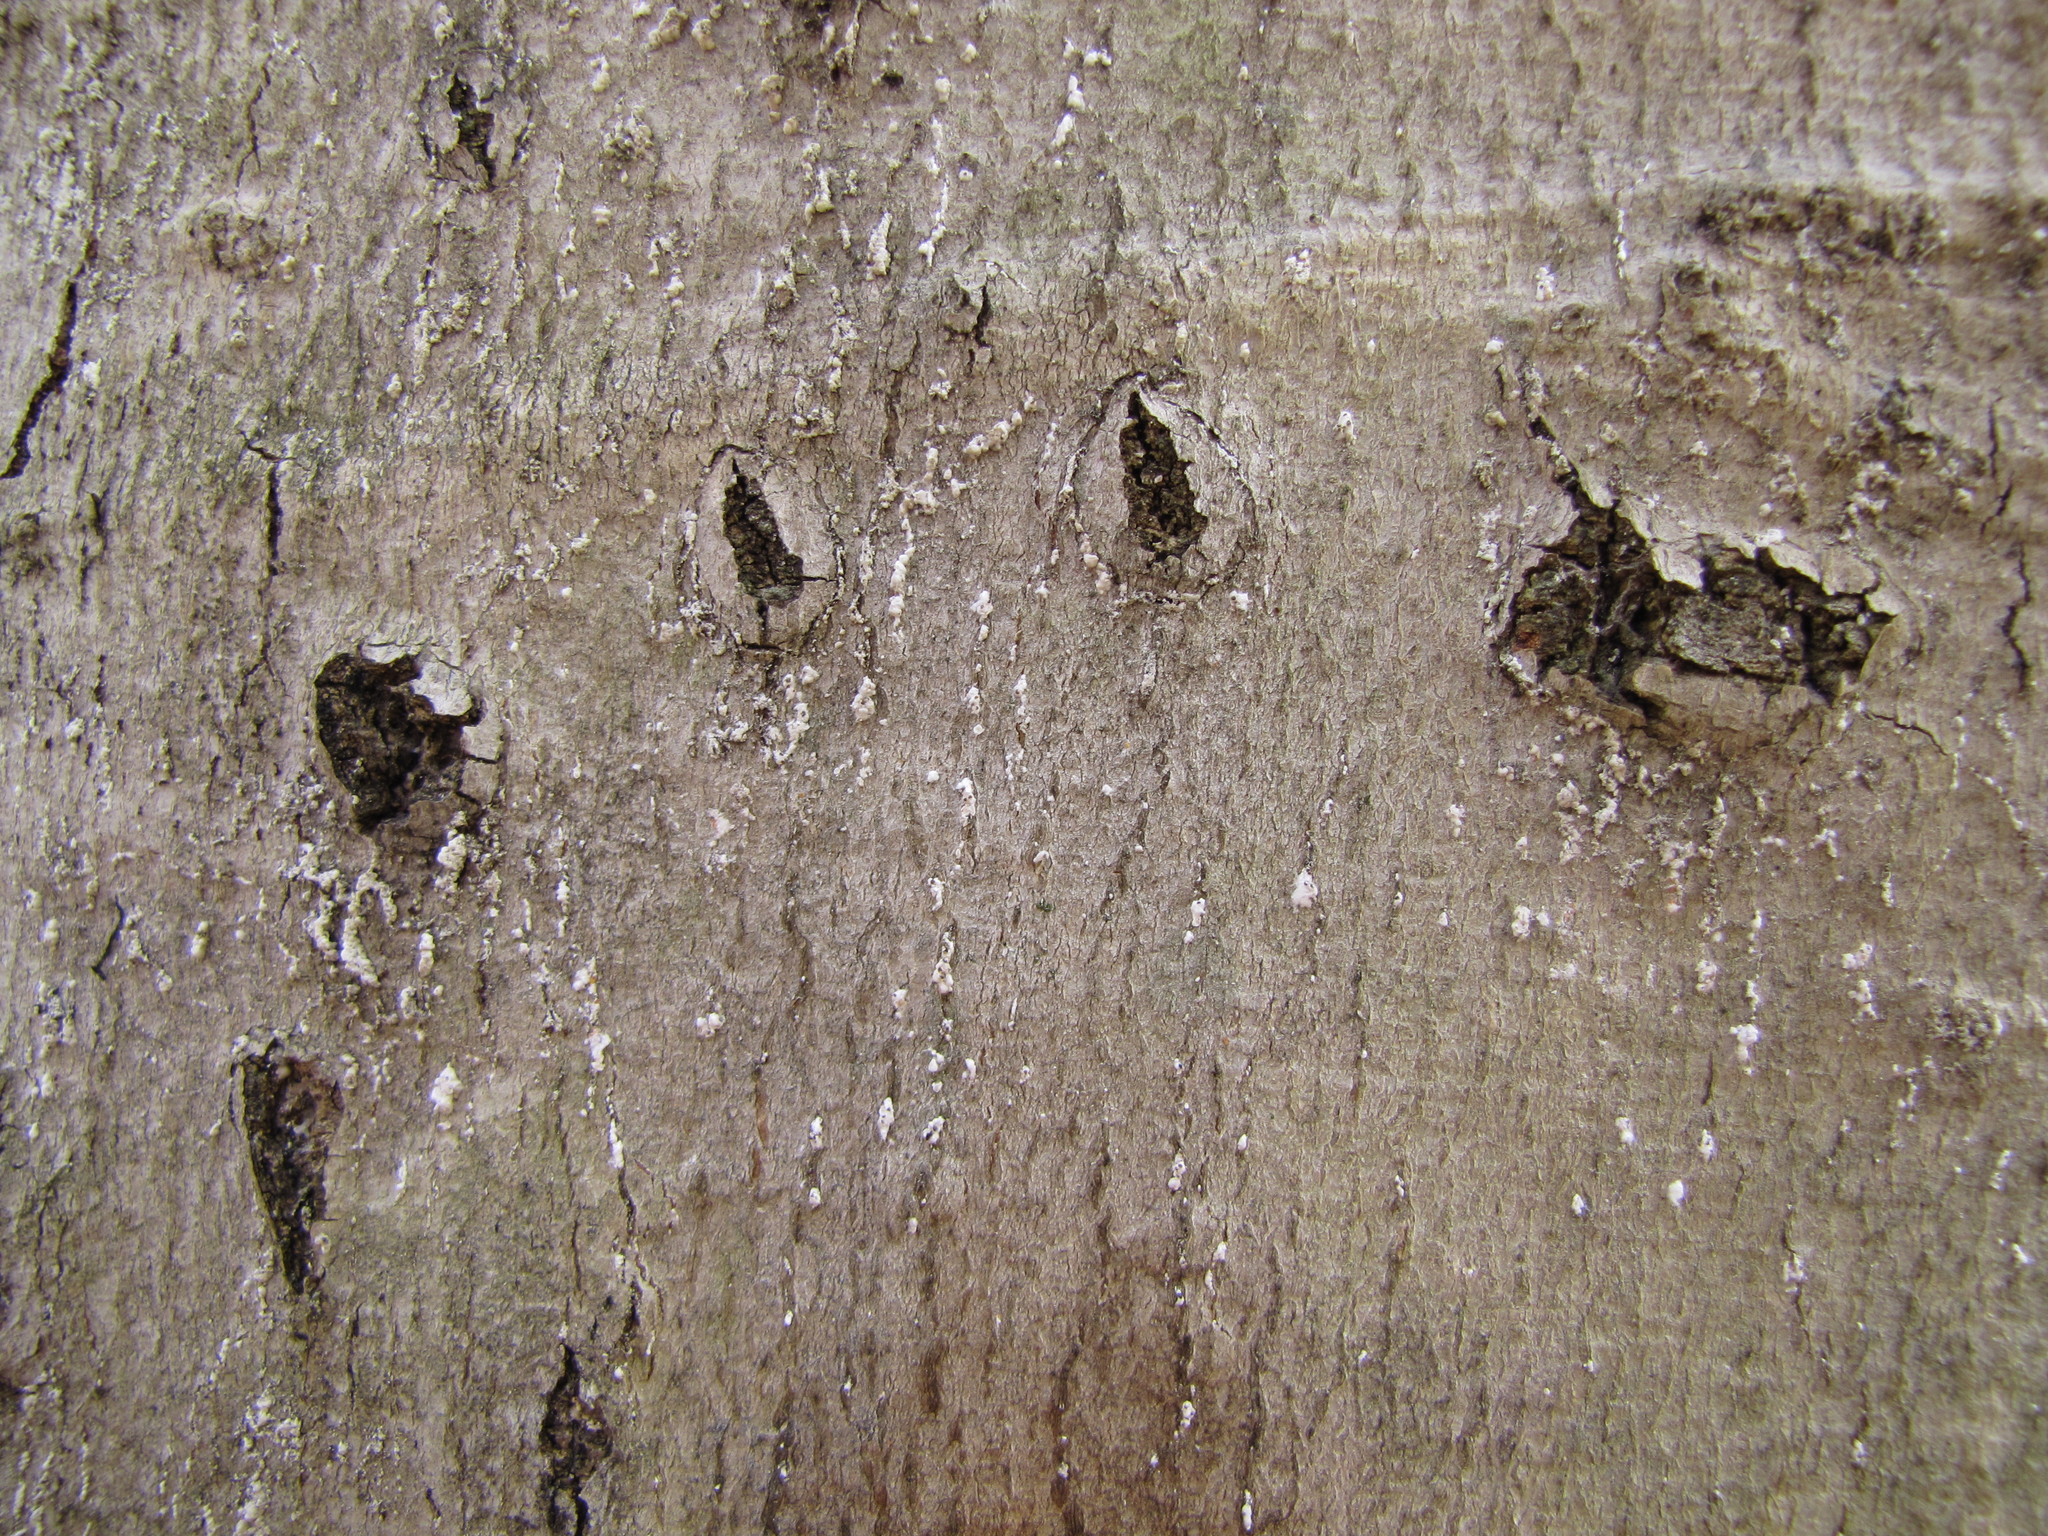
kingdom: Animalia
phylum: Chordata
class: Mammalia
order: Carnivora
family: Ursidae
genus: Ursus
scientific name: Ursus americanus
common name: American black bear
